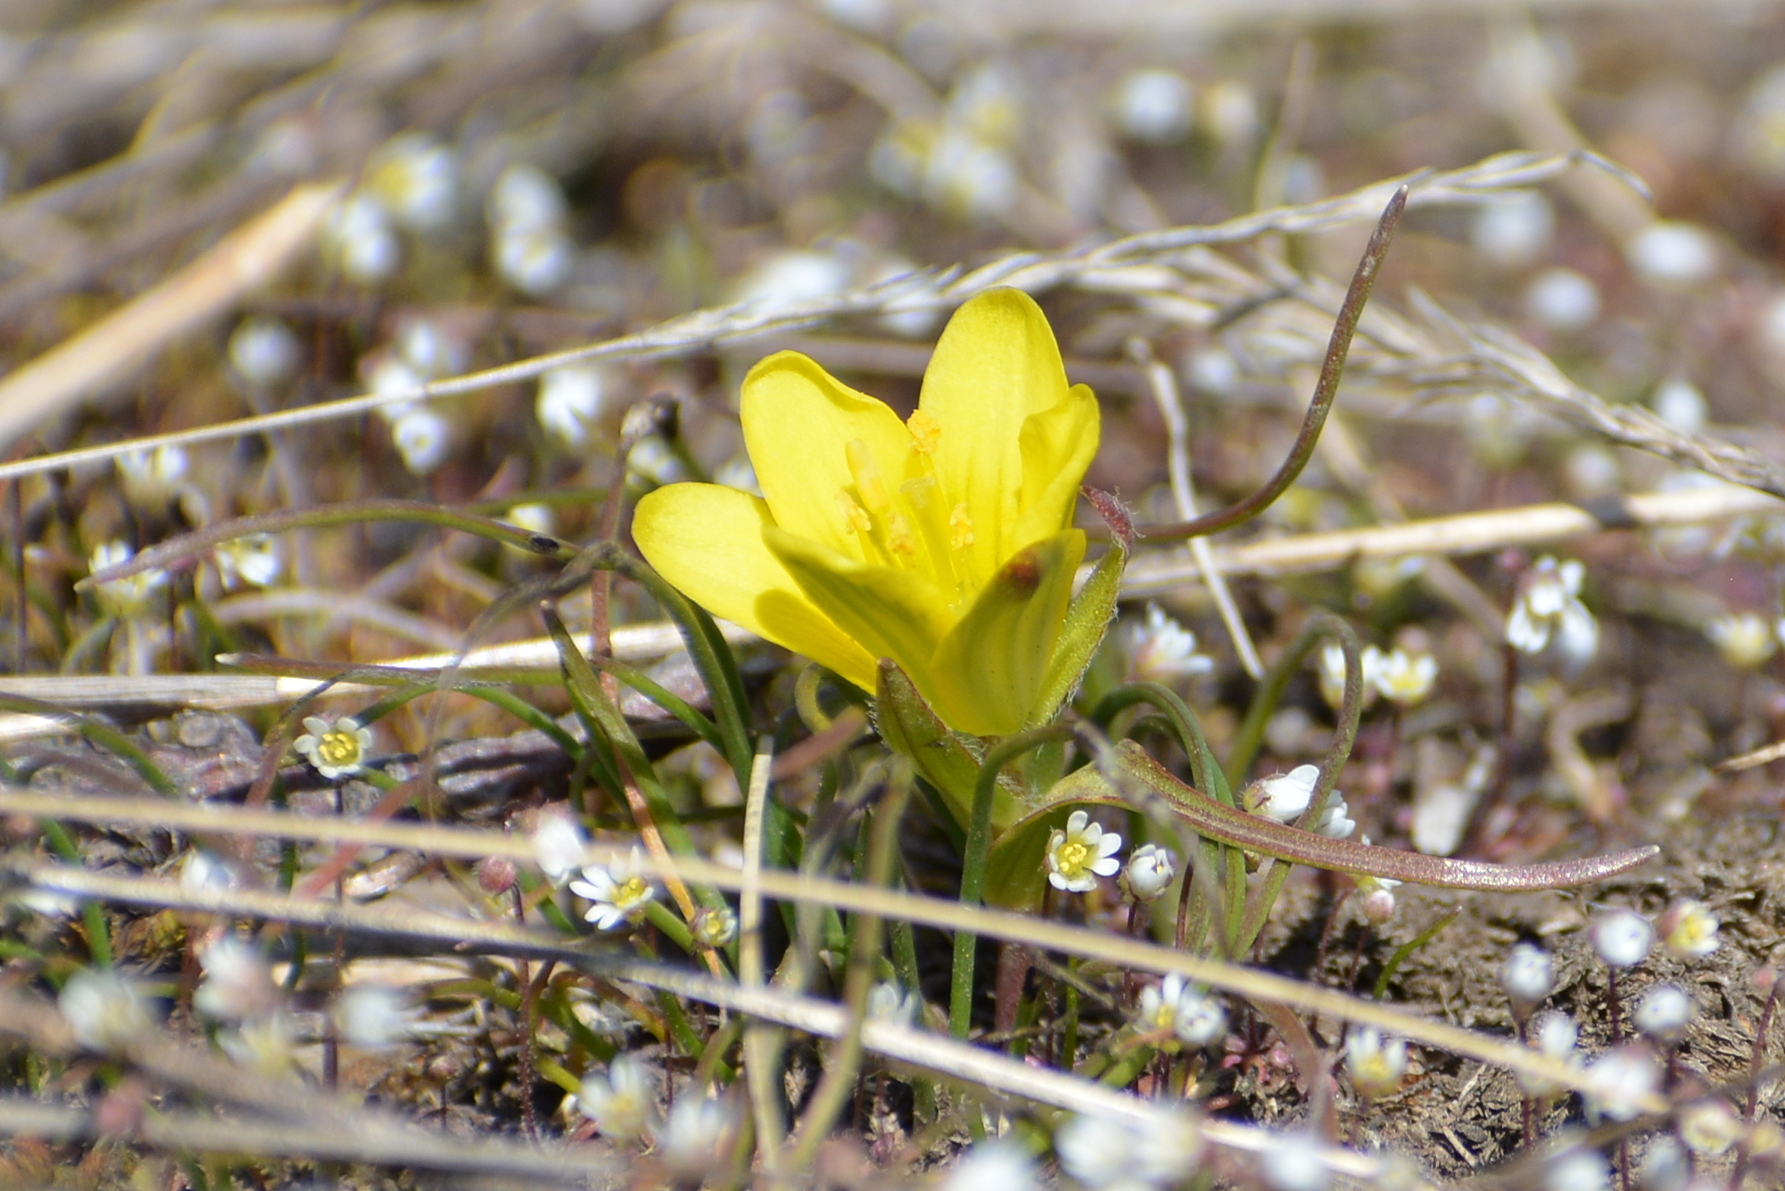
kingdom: Plantae
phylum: Tracheophyta
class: Liliopsida
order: Liliales
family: Liliaceae
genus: Gagea
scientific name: Gagea bohemica
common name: Early star-of-bethlehem
